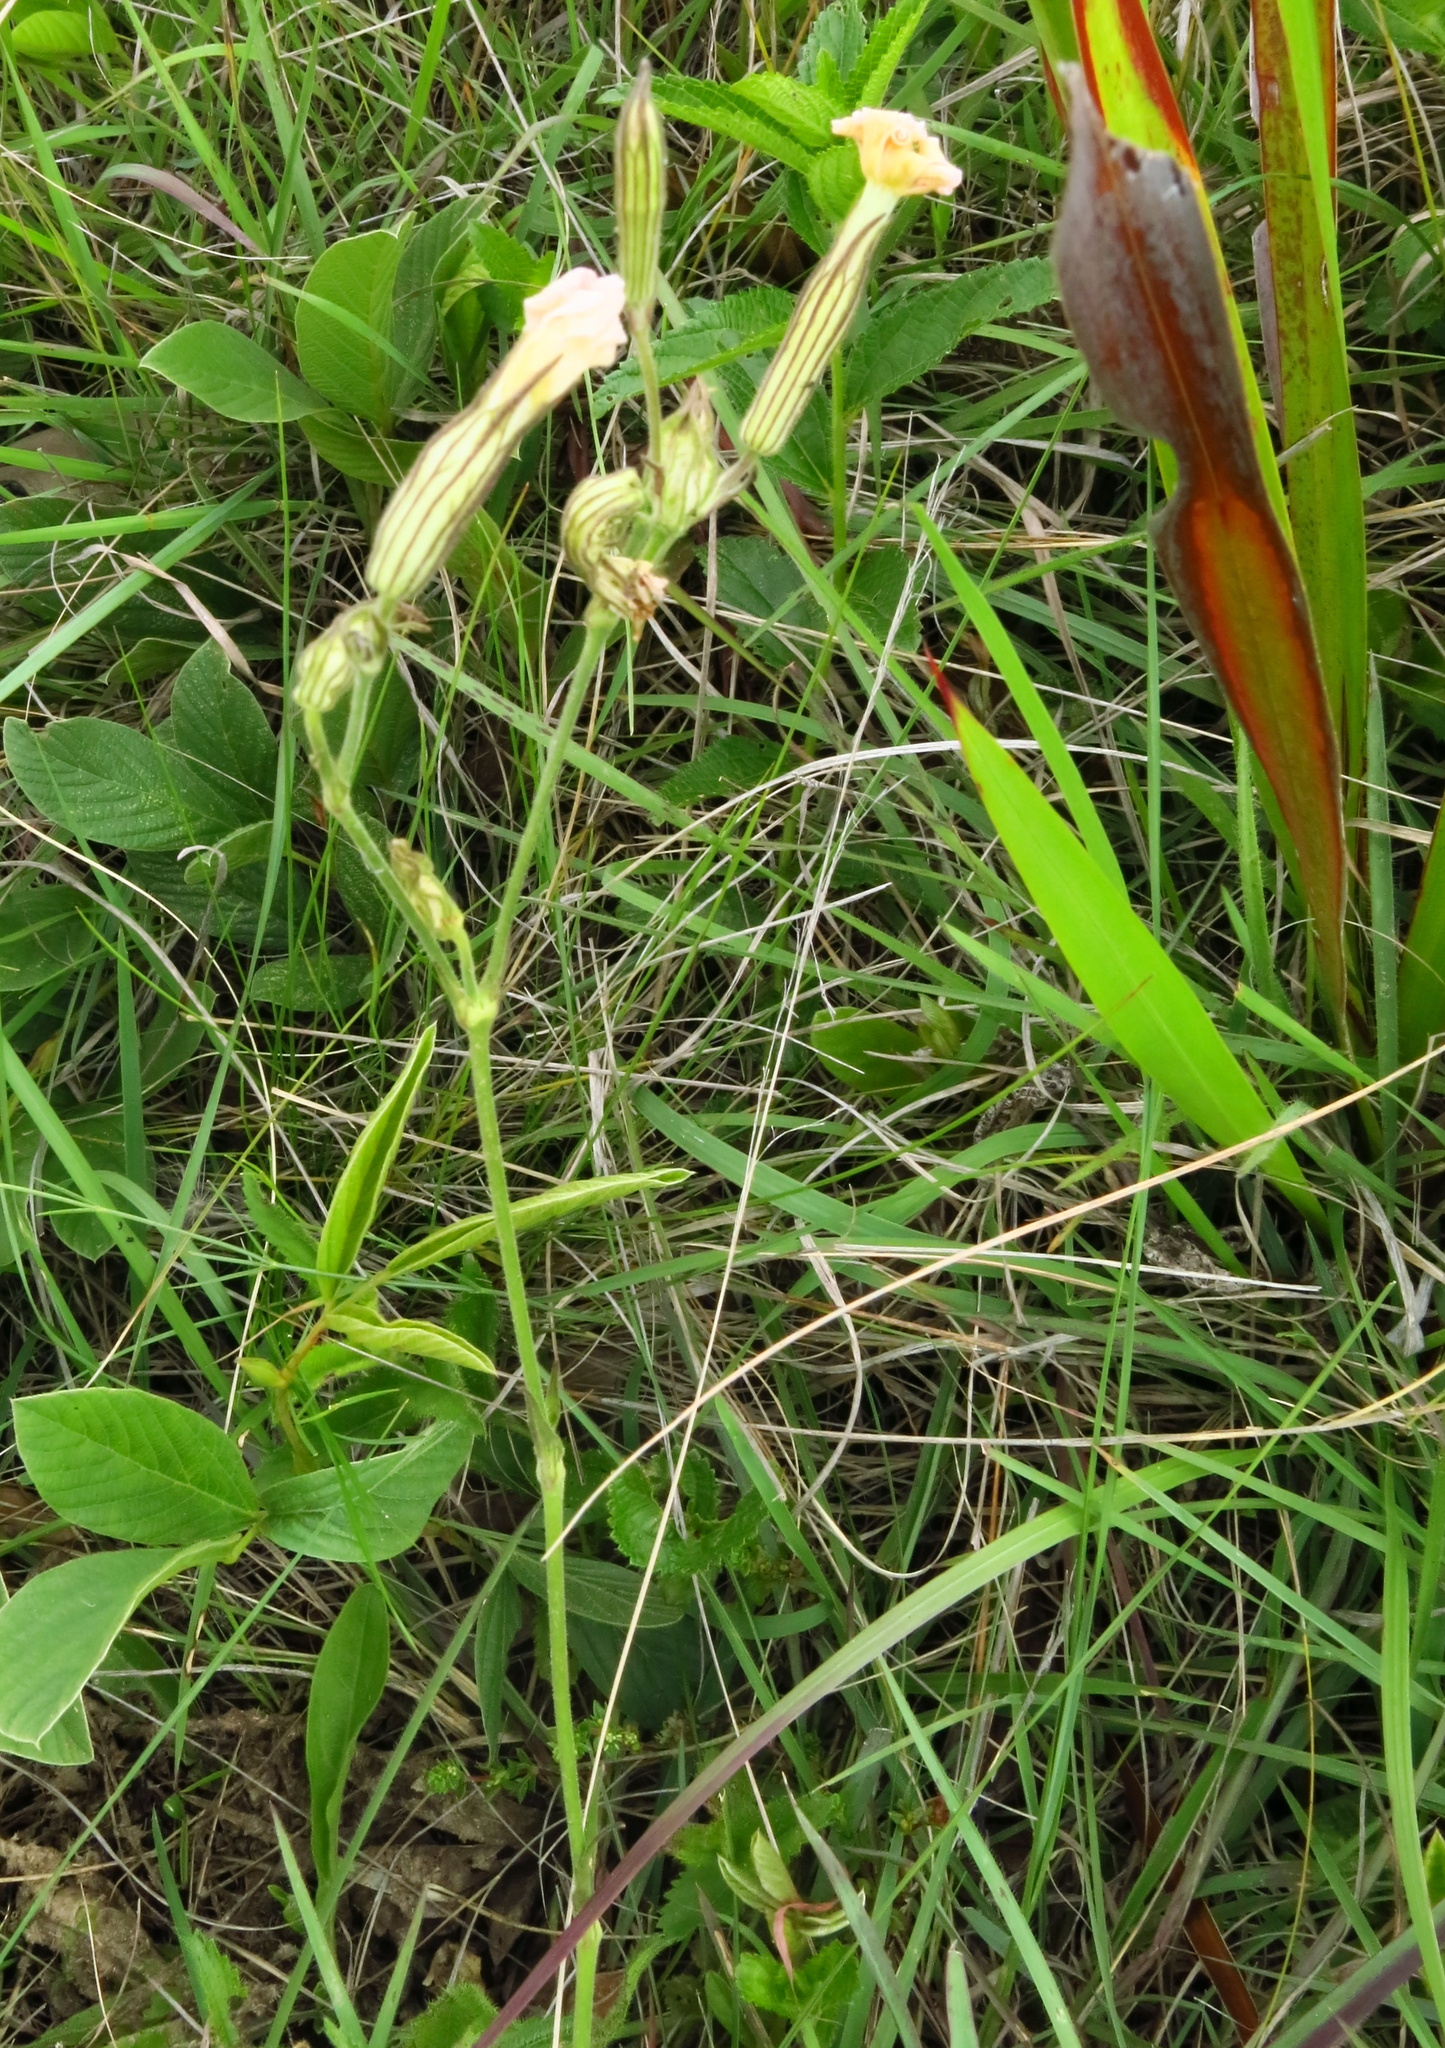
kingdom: Plantae
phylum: Tracheophyta
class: Magnoliopsida
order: Caryophyllales
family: Caryophyllaceae
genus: Silene
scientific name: Silene undulata
